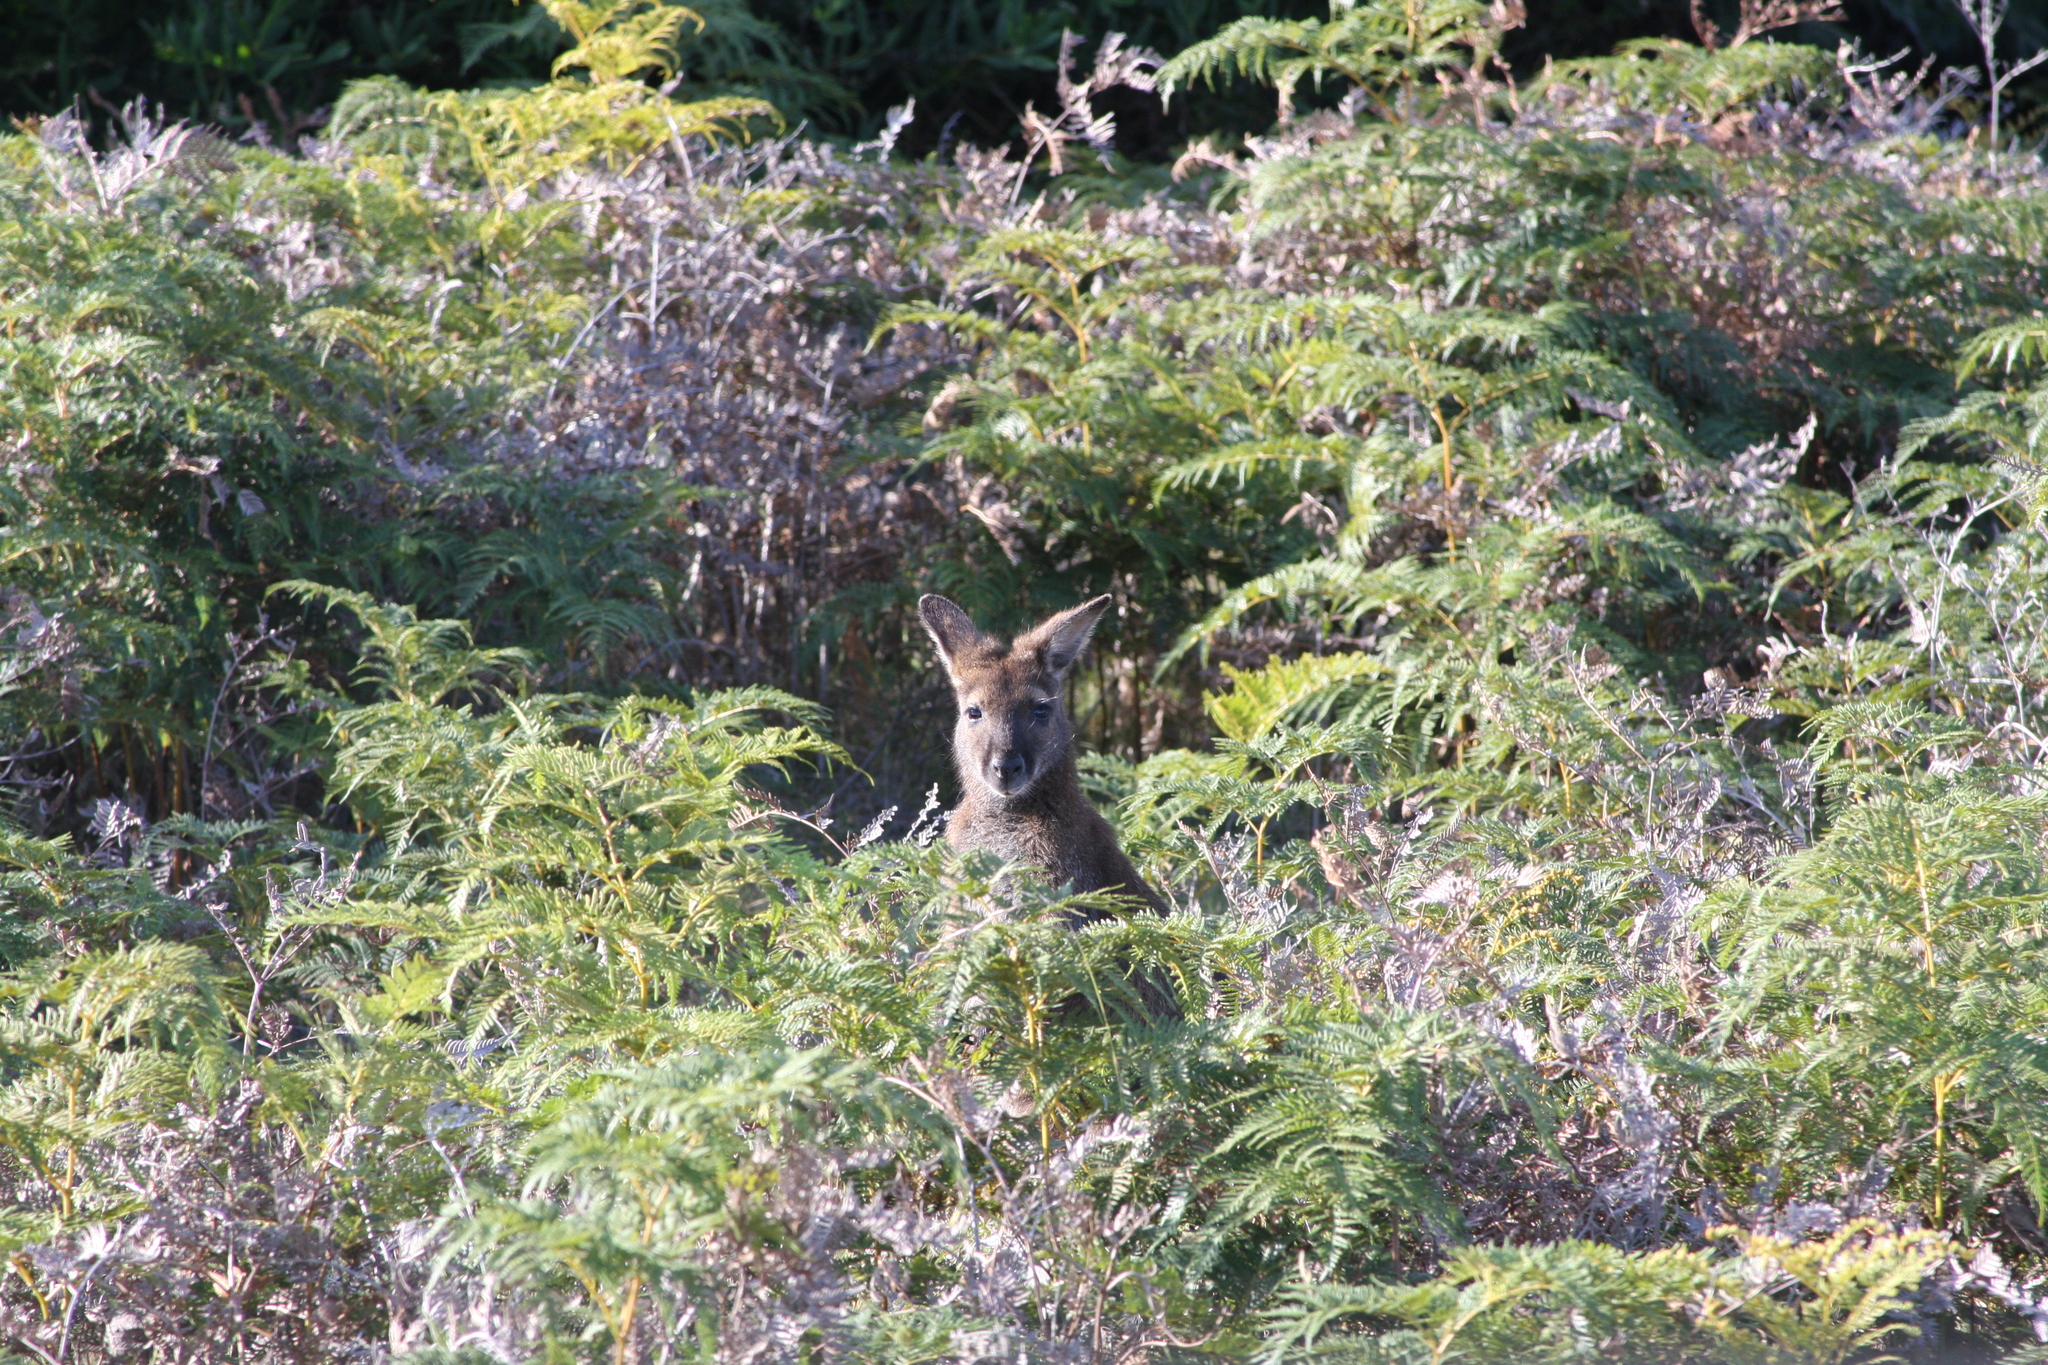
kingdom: Animalia
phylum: Chordata
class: Mammalia
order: Diprotodontia
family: Macropodidae
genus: Notamacropus
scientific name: Notamacropus rufogriseus
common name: Red-necked wallaby
